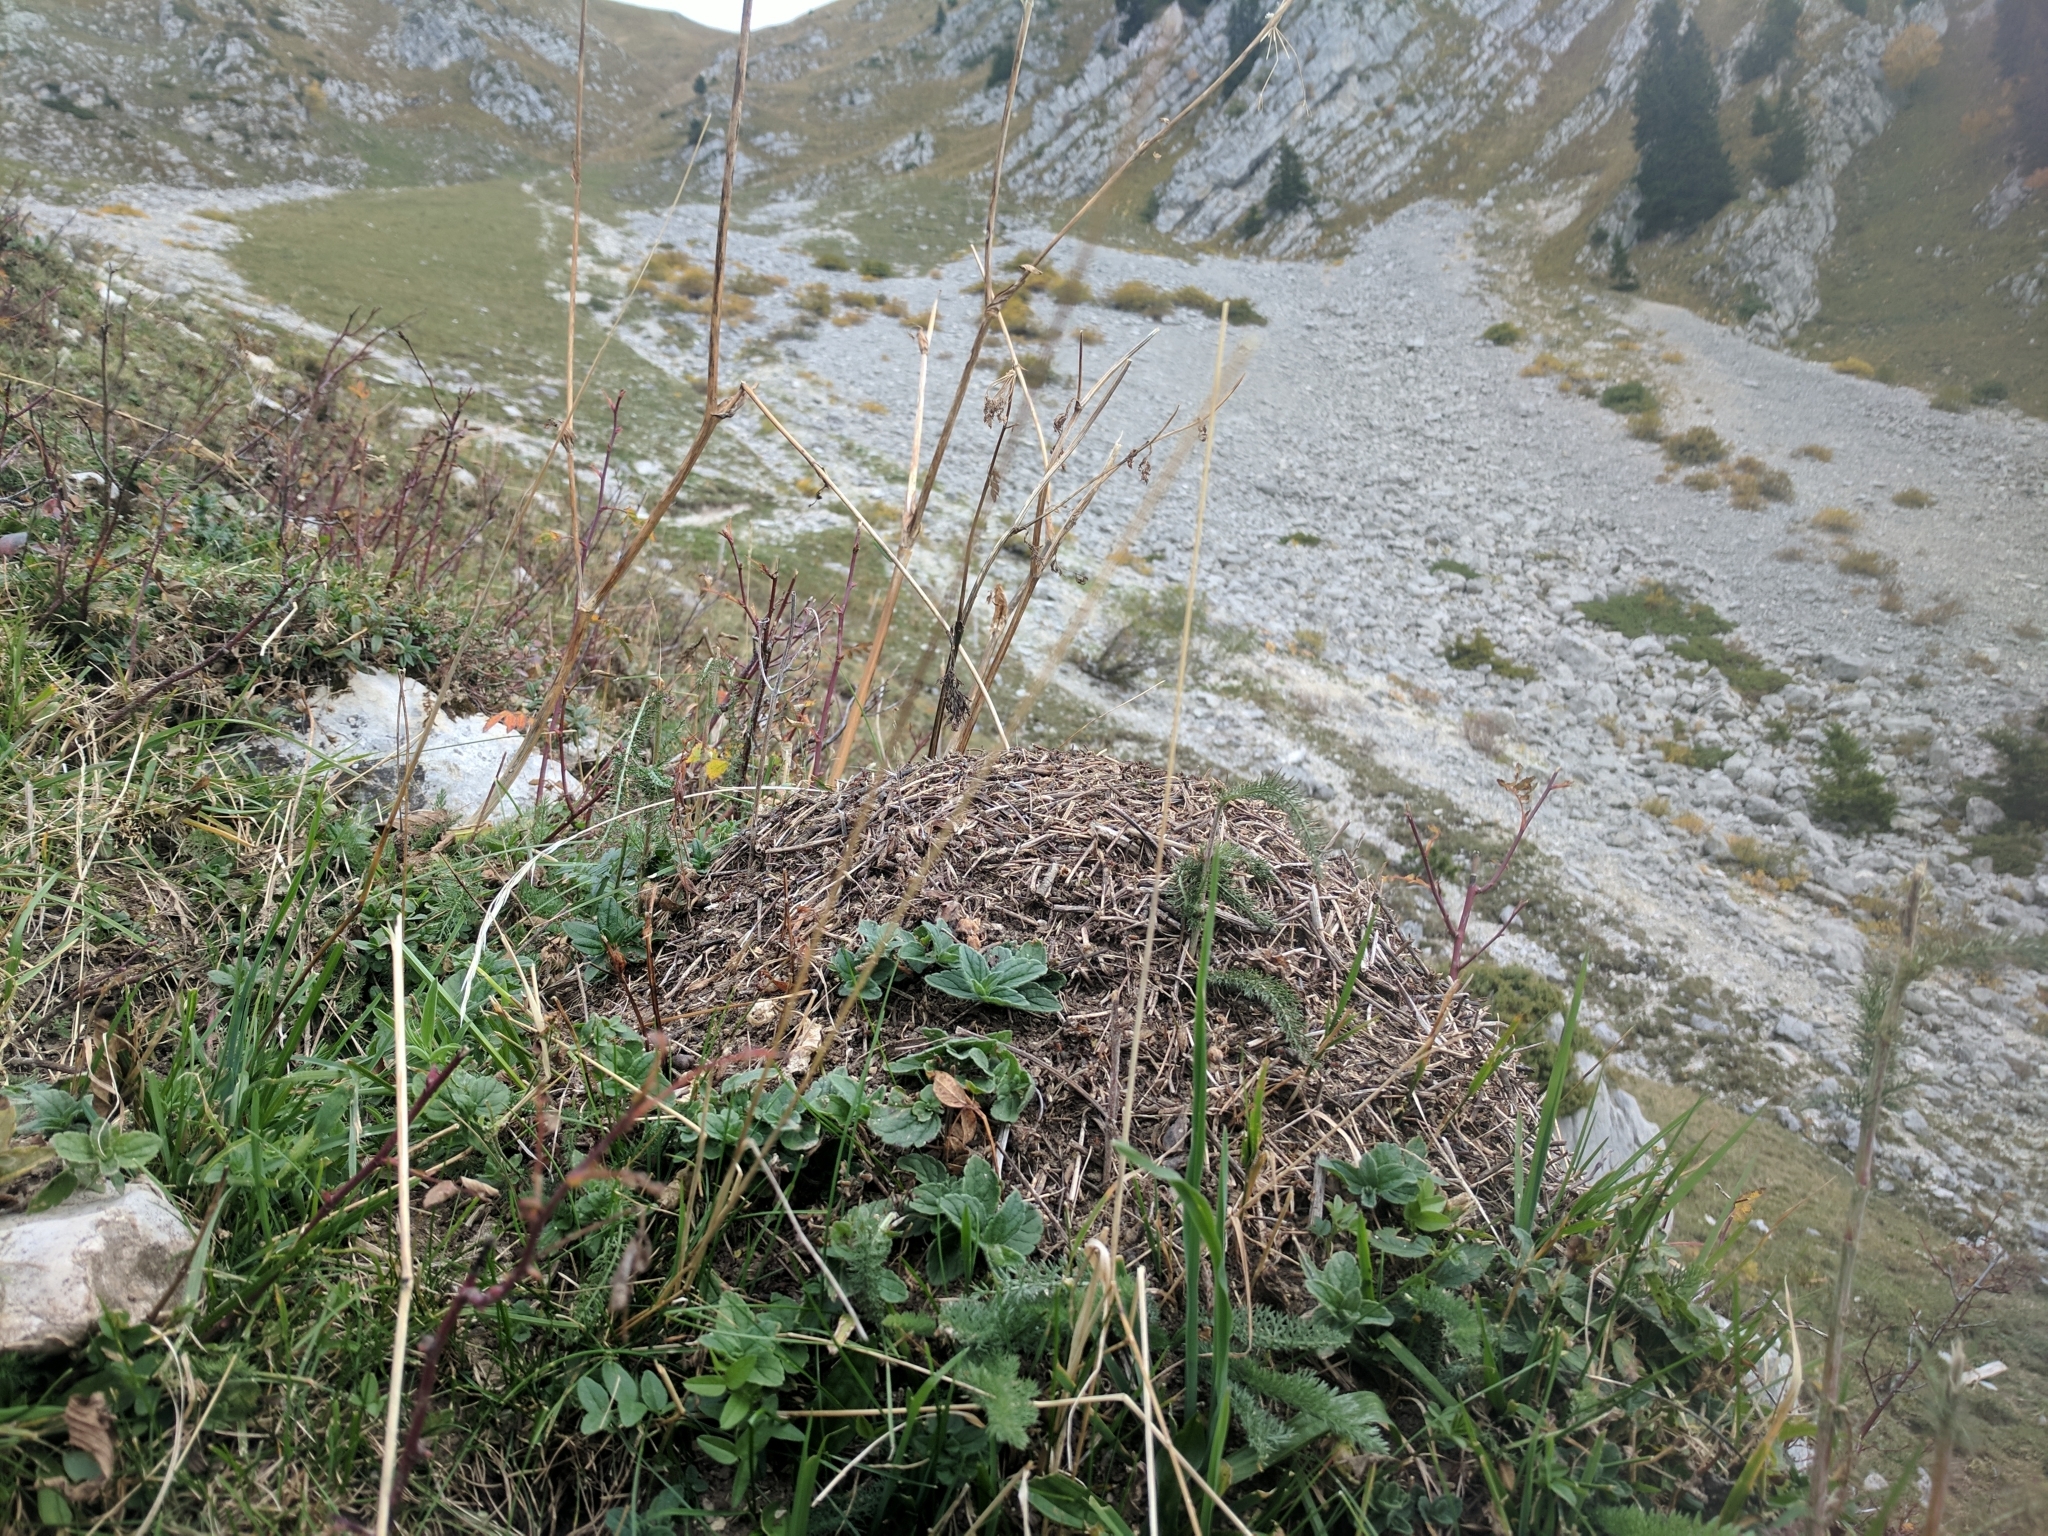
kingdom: Animalia
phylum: Arthropoda
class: Insecta
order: Hymenoptera
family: Formicidae
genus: Formica
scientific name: Formica lugubris
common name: Sinister mound ant
